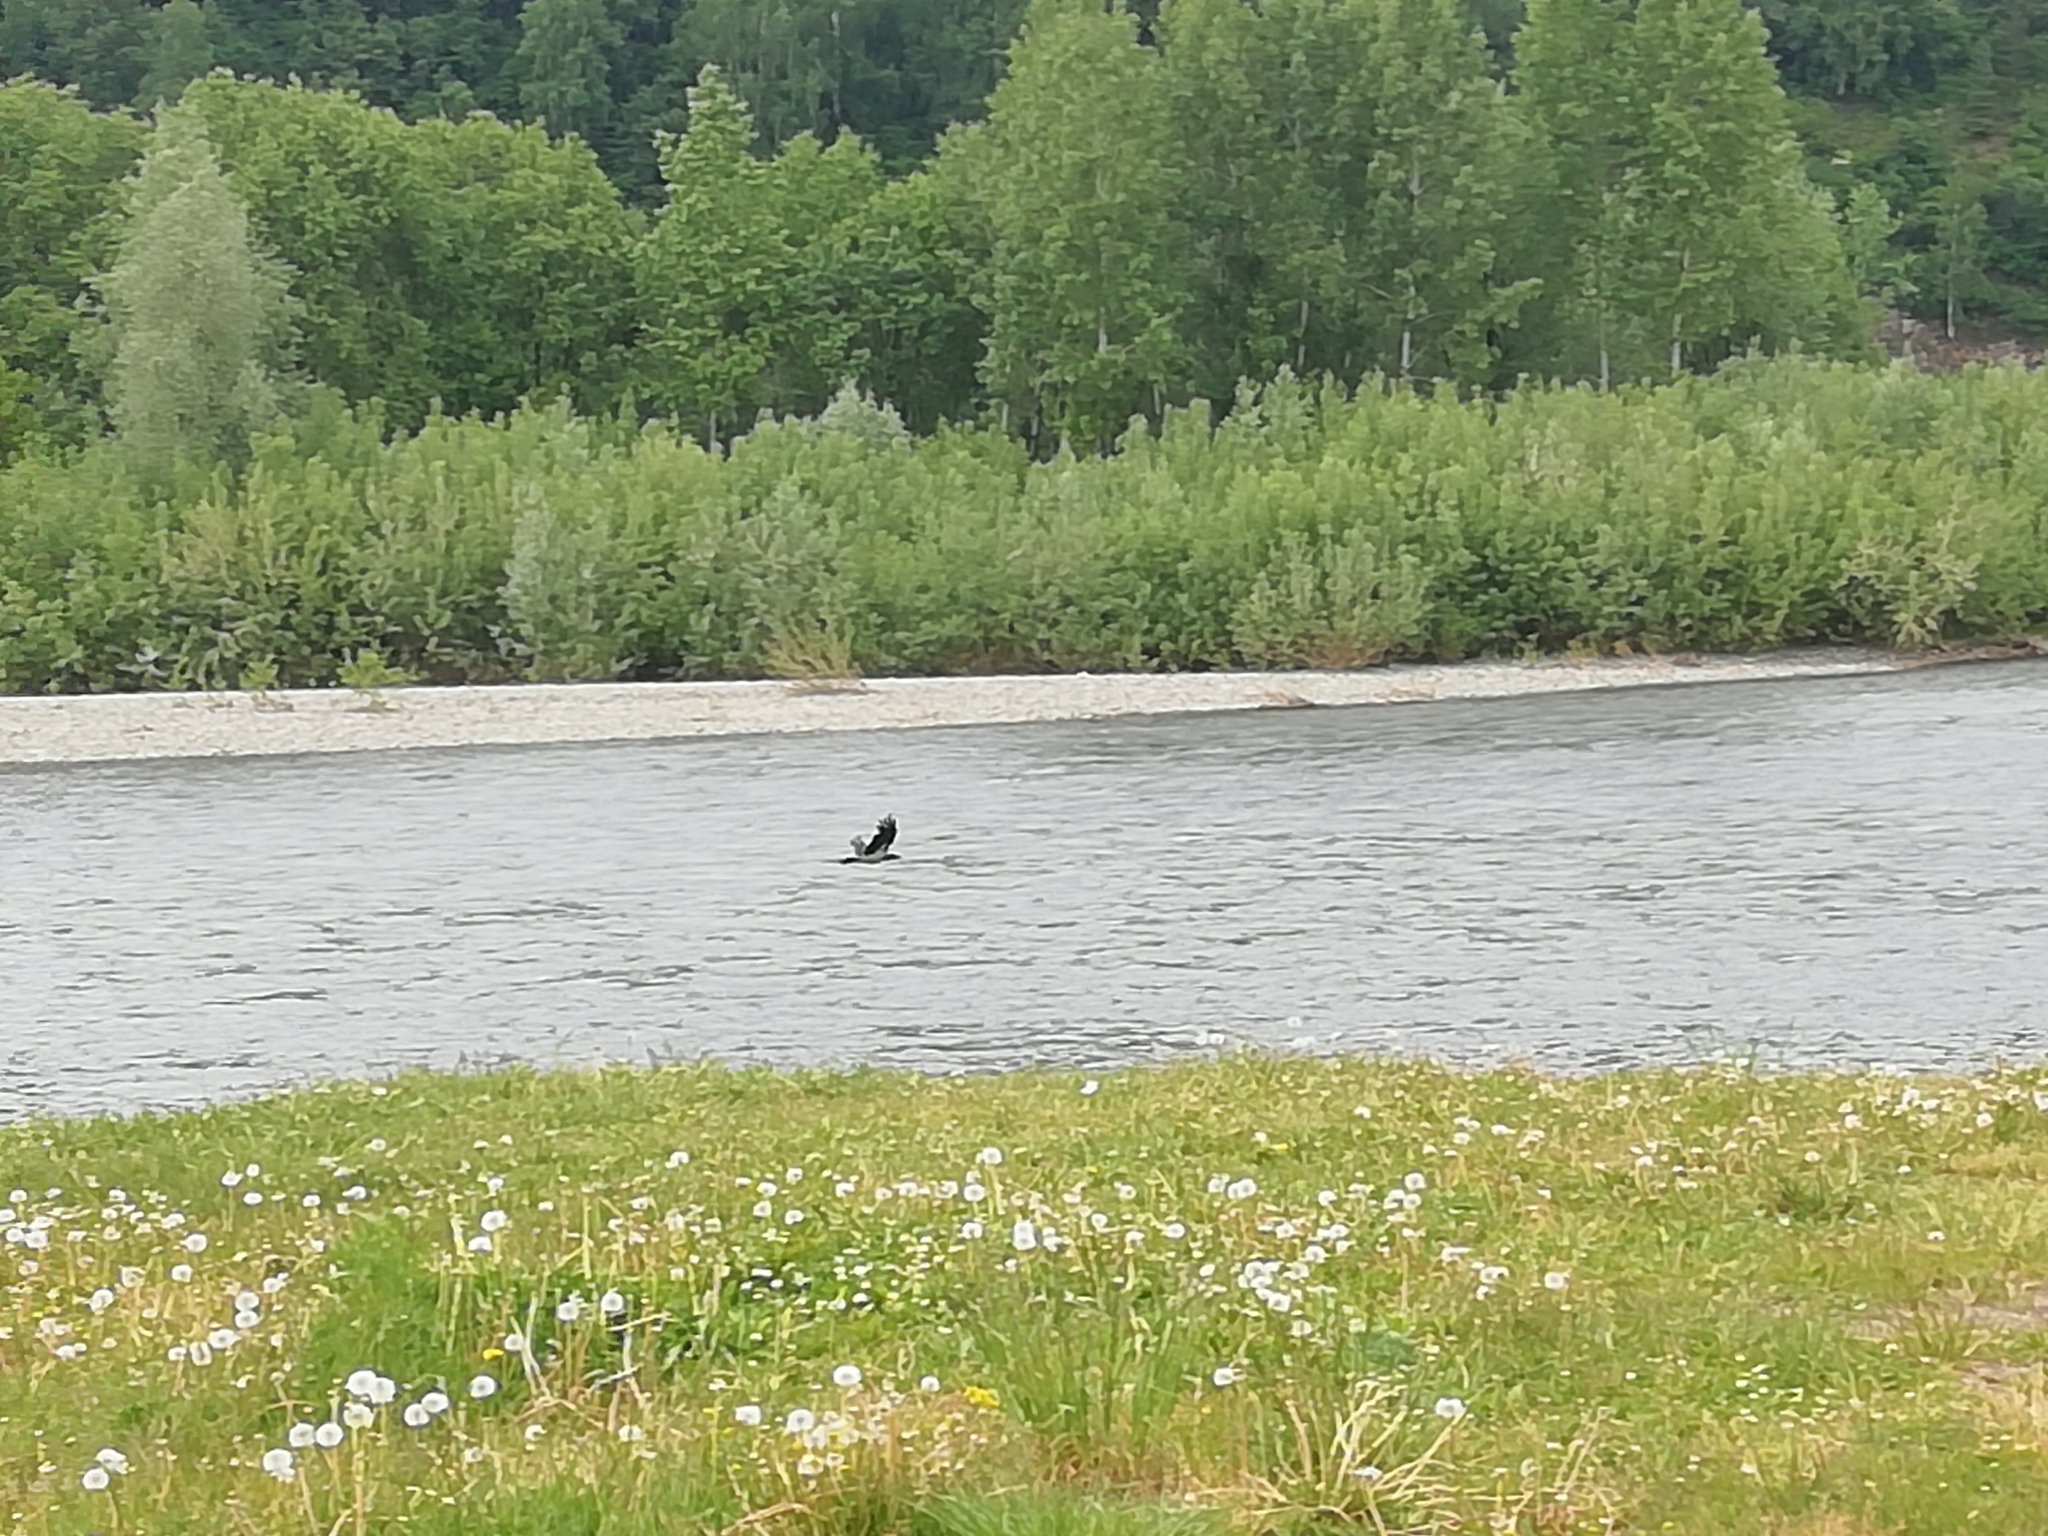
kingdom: Animalia
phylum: Chordata
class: Aves
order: Passeriformes
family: Corvidae
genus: Corvus
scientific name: Corvus cornix
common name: Hooded crow
